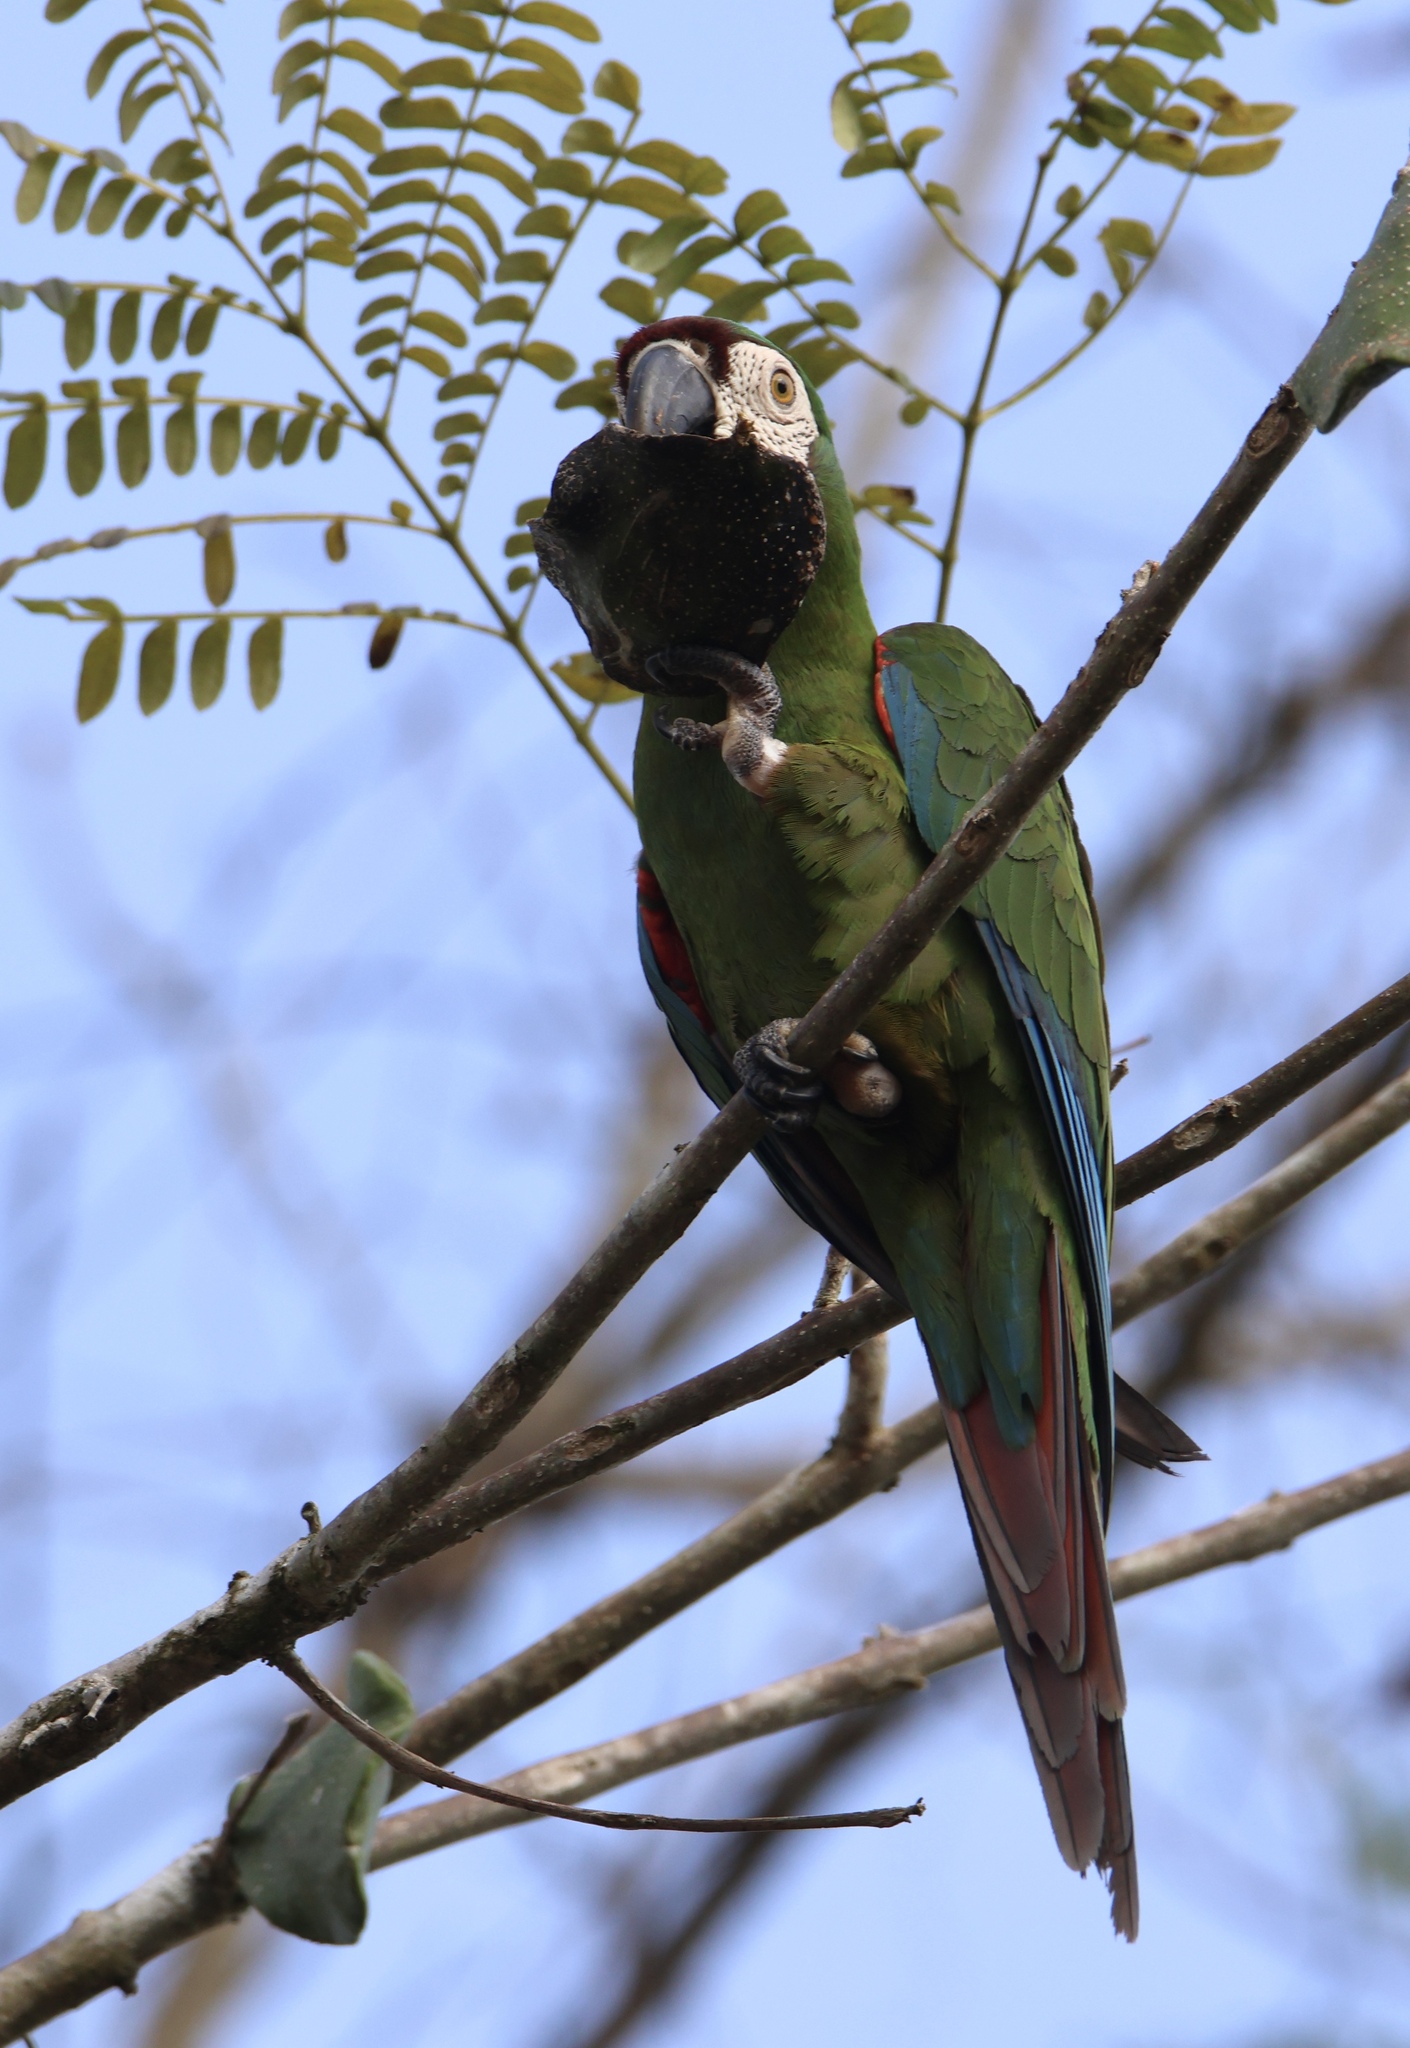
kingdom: Animalia
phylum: Chordata
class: Aves
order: Psittaciformes
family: Psittacidae
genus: Ara
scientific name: Ara severus
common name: Chestnut-fronted macaw
